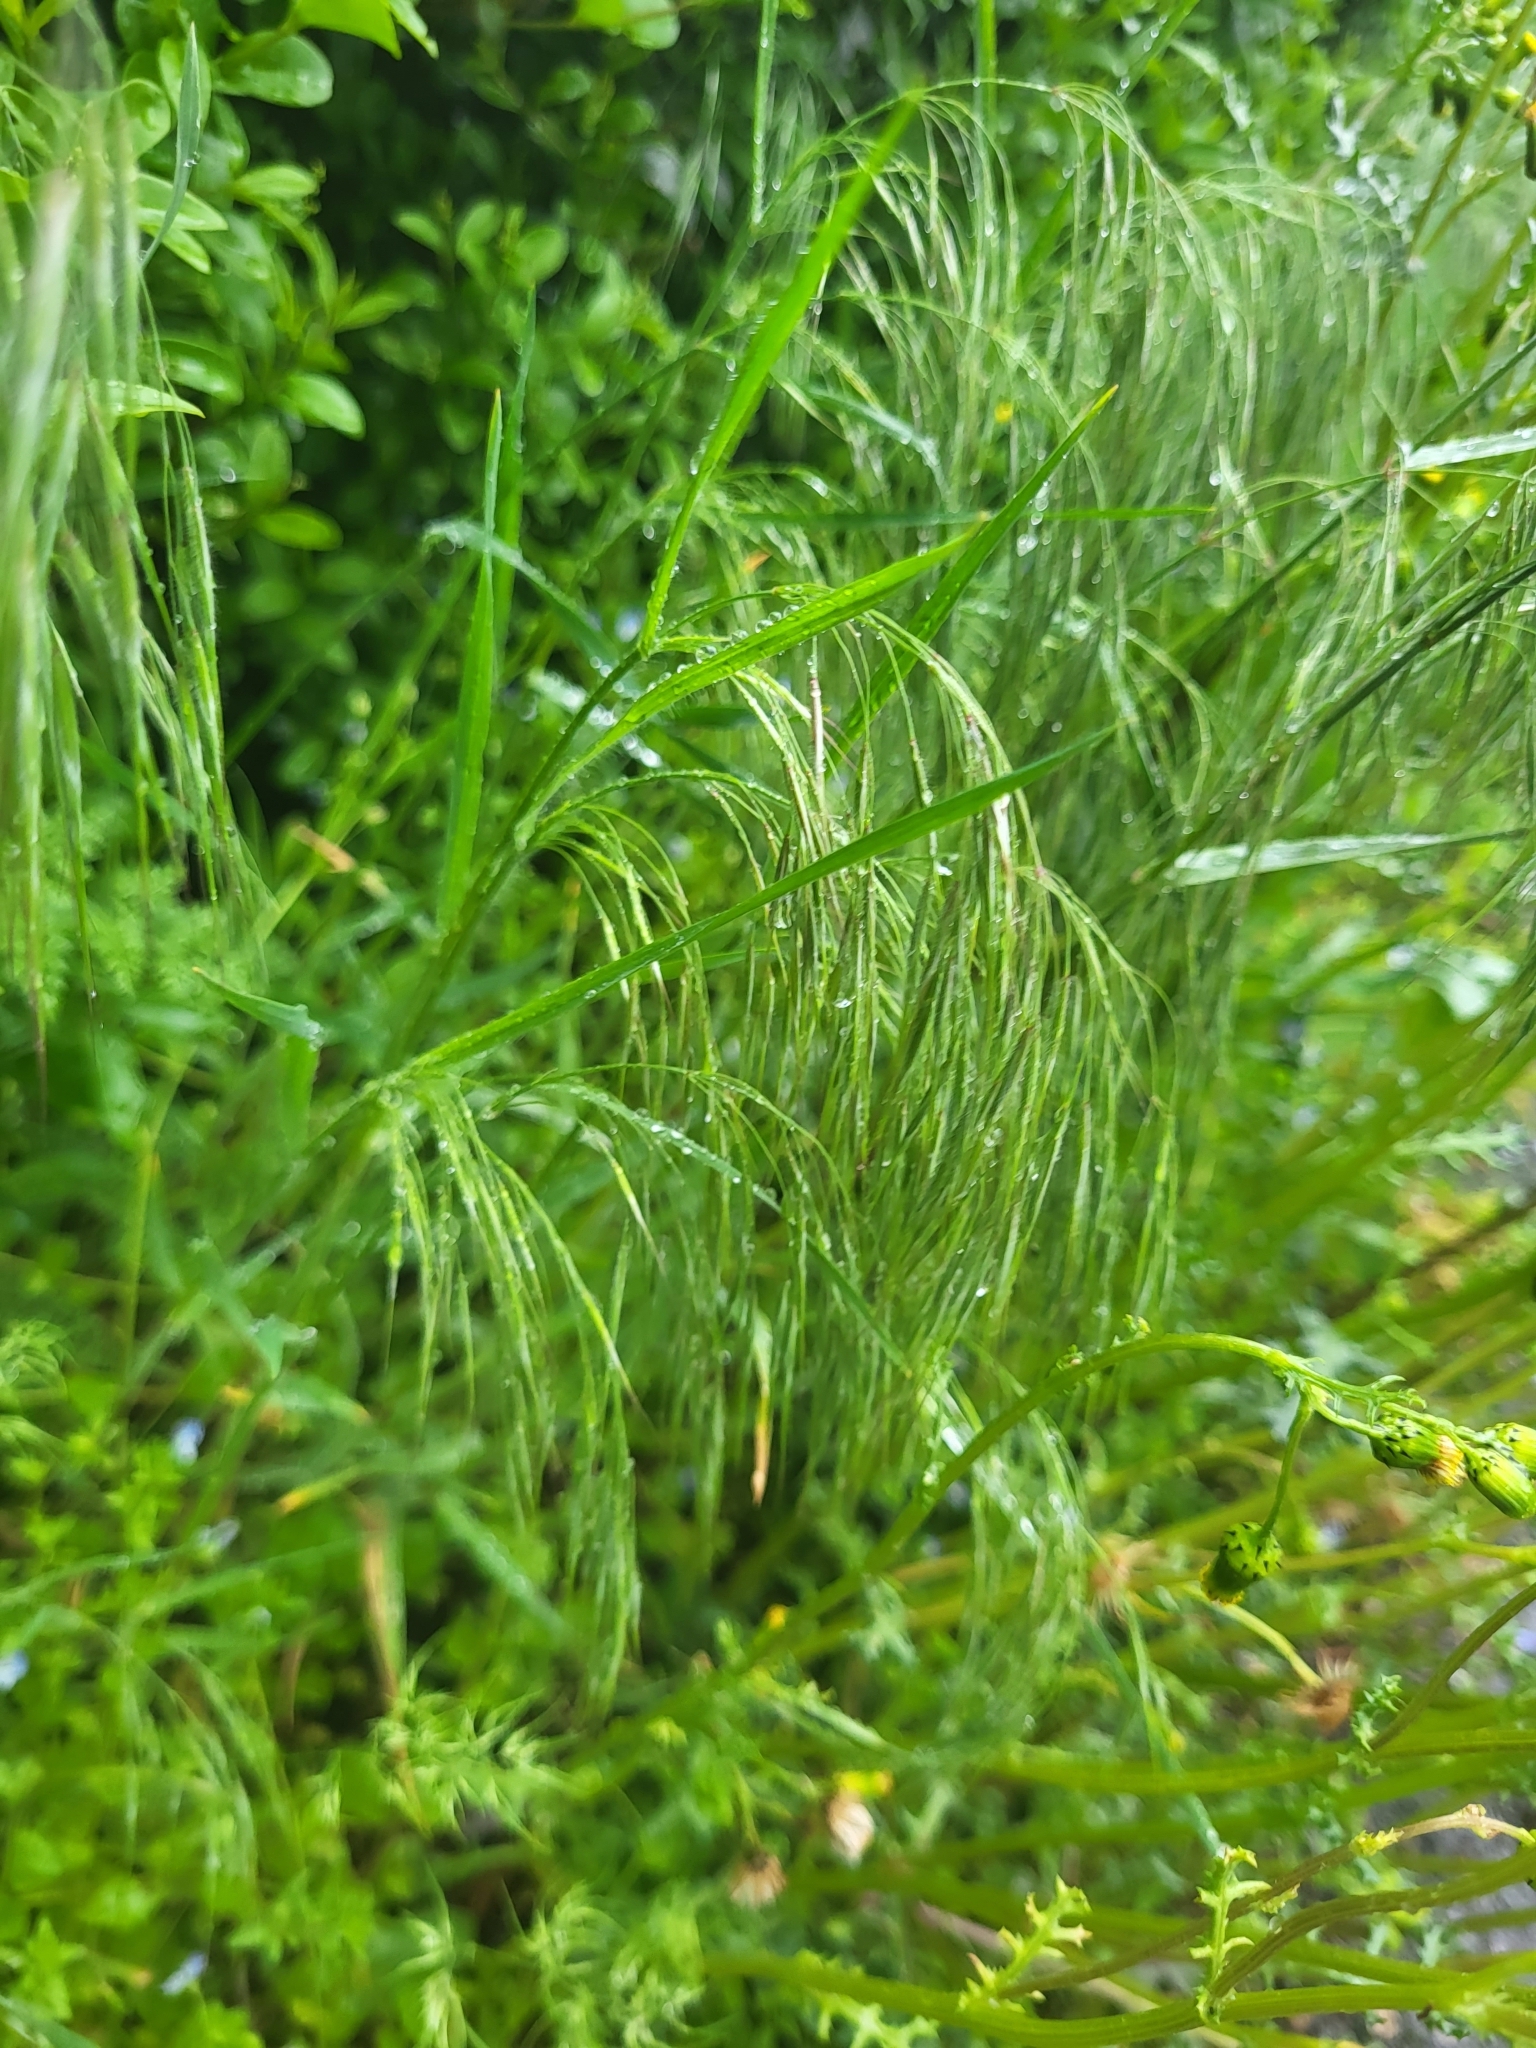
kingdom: Plantae
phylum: Tracheophyta
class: Liliopsida
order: Poales
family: Poaceae
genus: Bromus
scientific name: Bromus tectorum
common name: Cheatgrass
